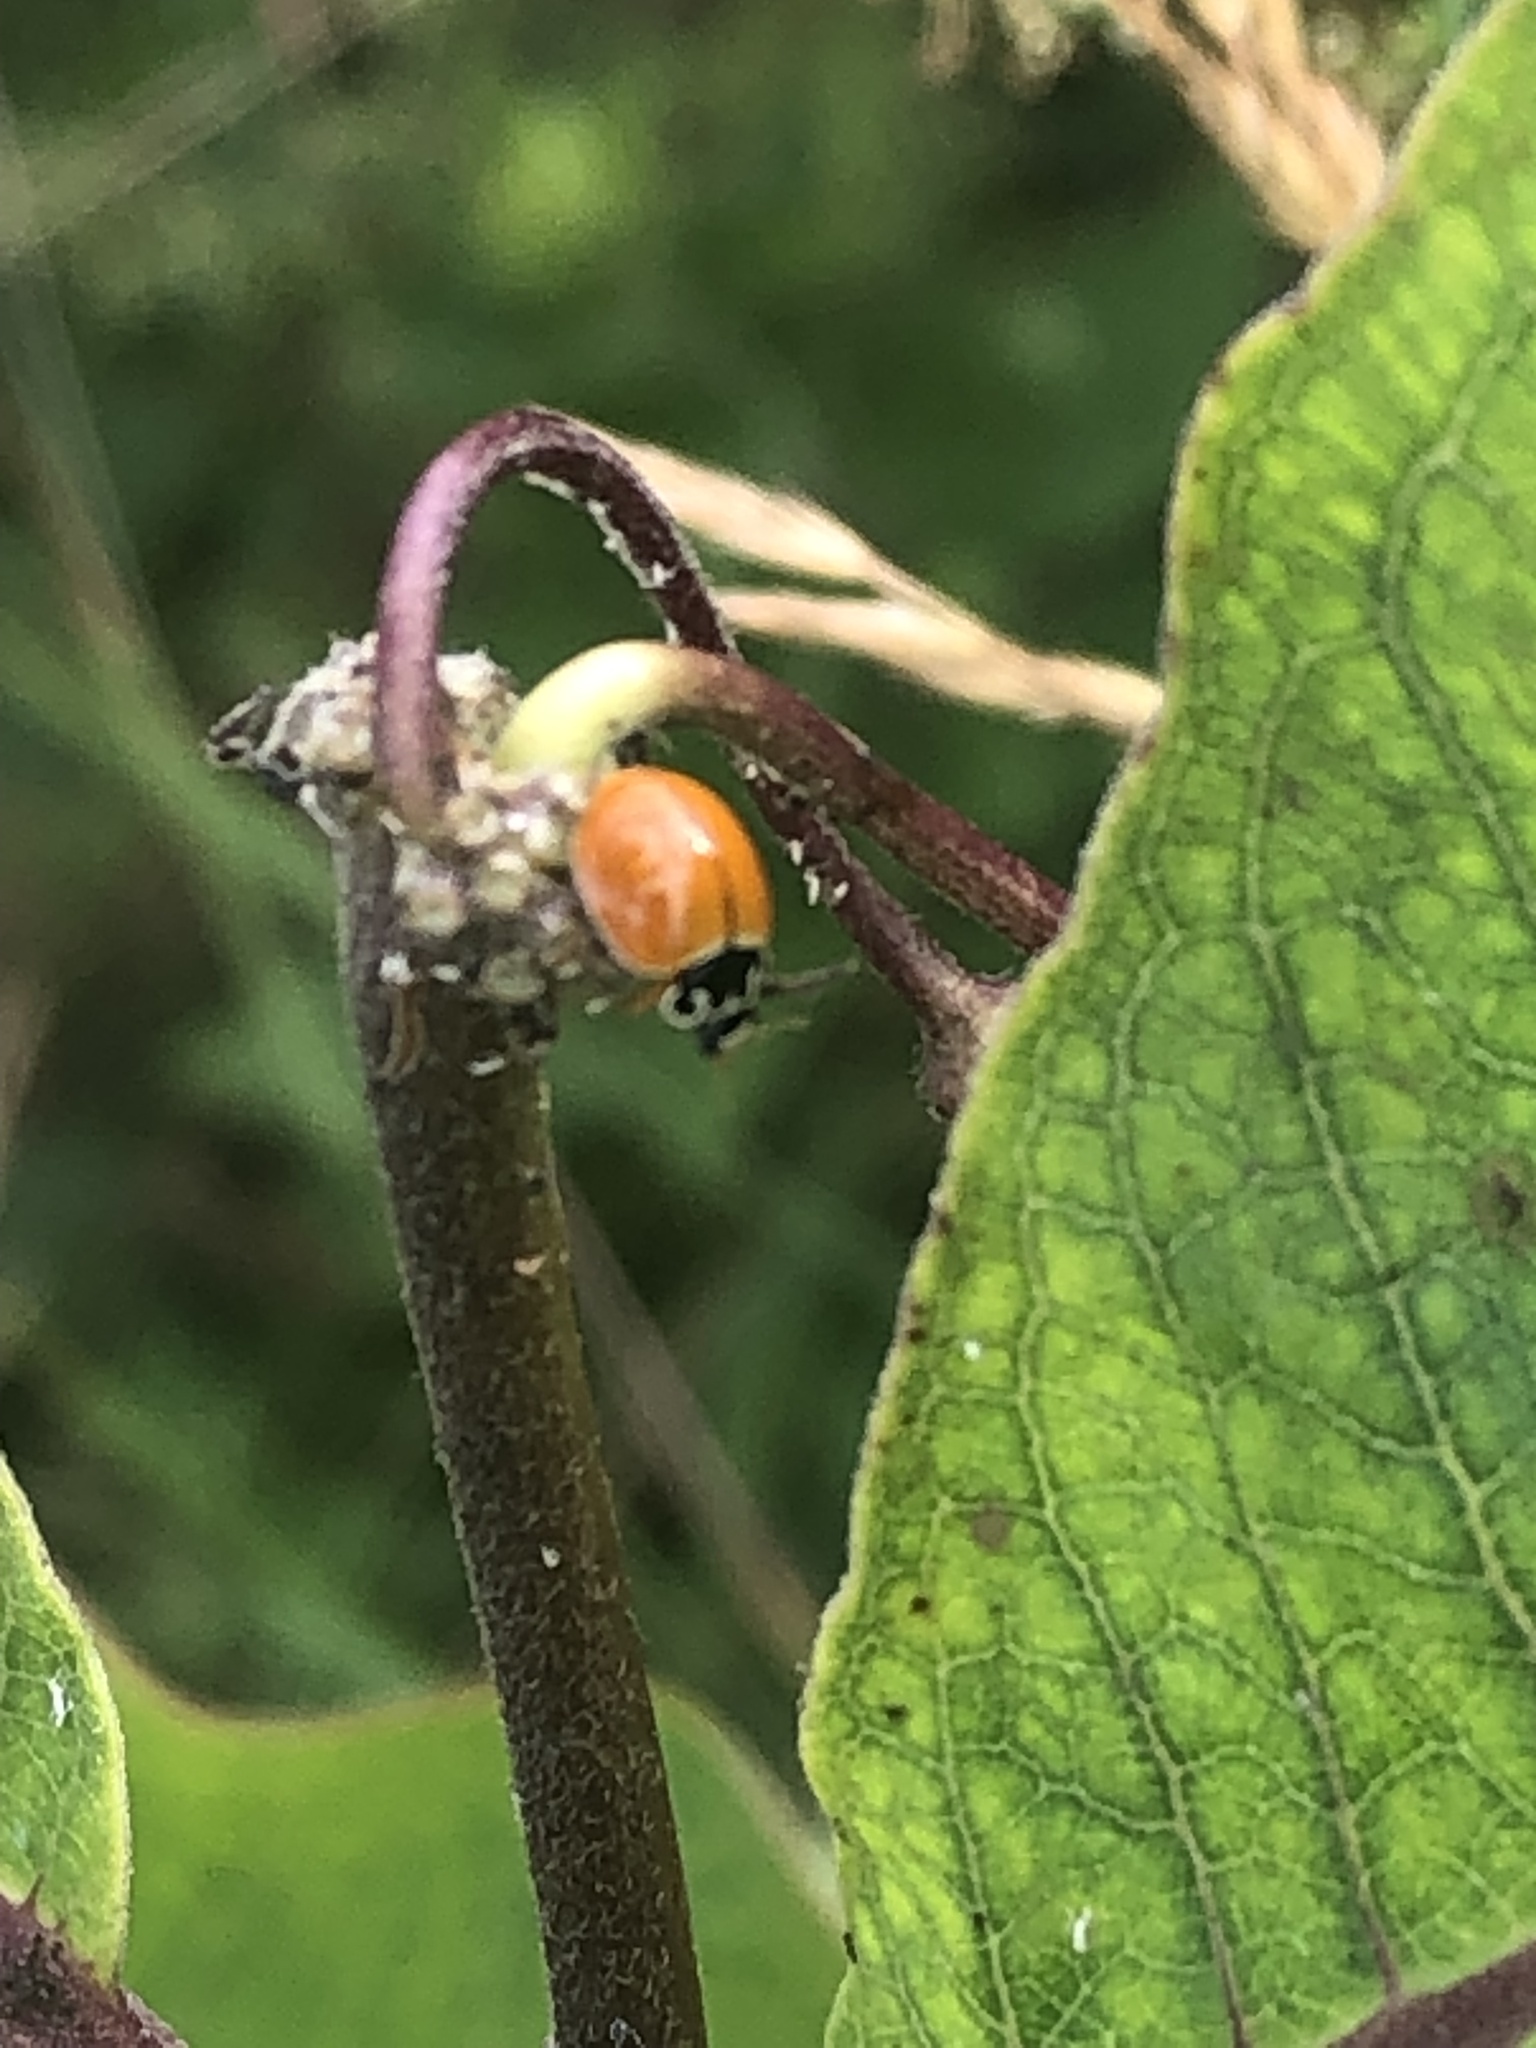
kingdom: Animalia
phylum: Arthropoda
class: Insecta
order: Coleoptera
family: Coccinellidae
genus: Cycloneda
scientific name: Cycloneda munda
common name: Polished lady beetle
